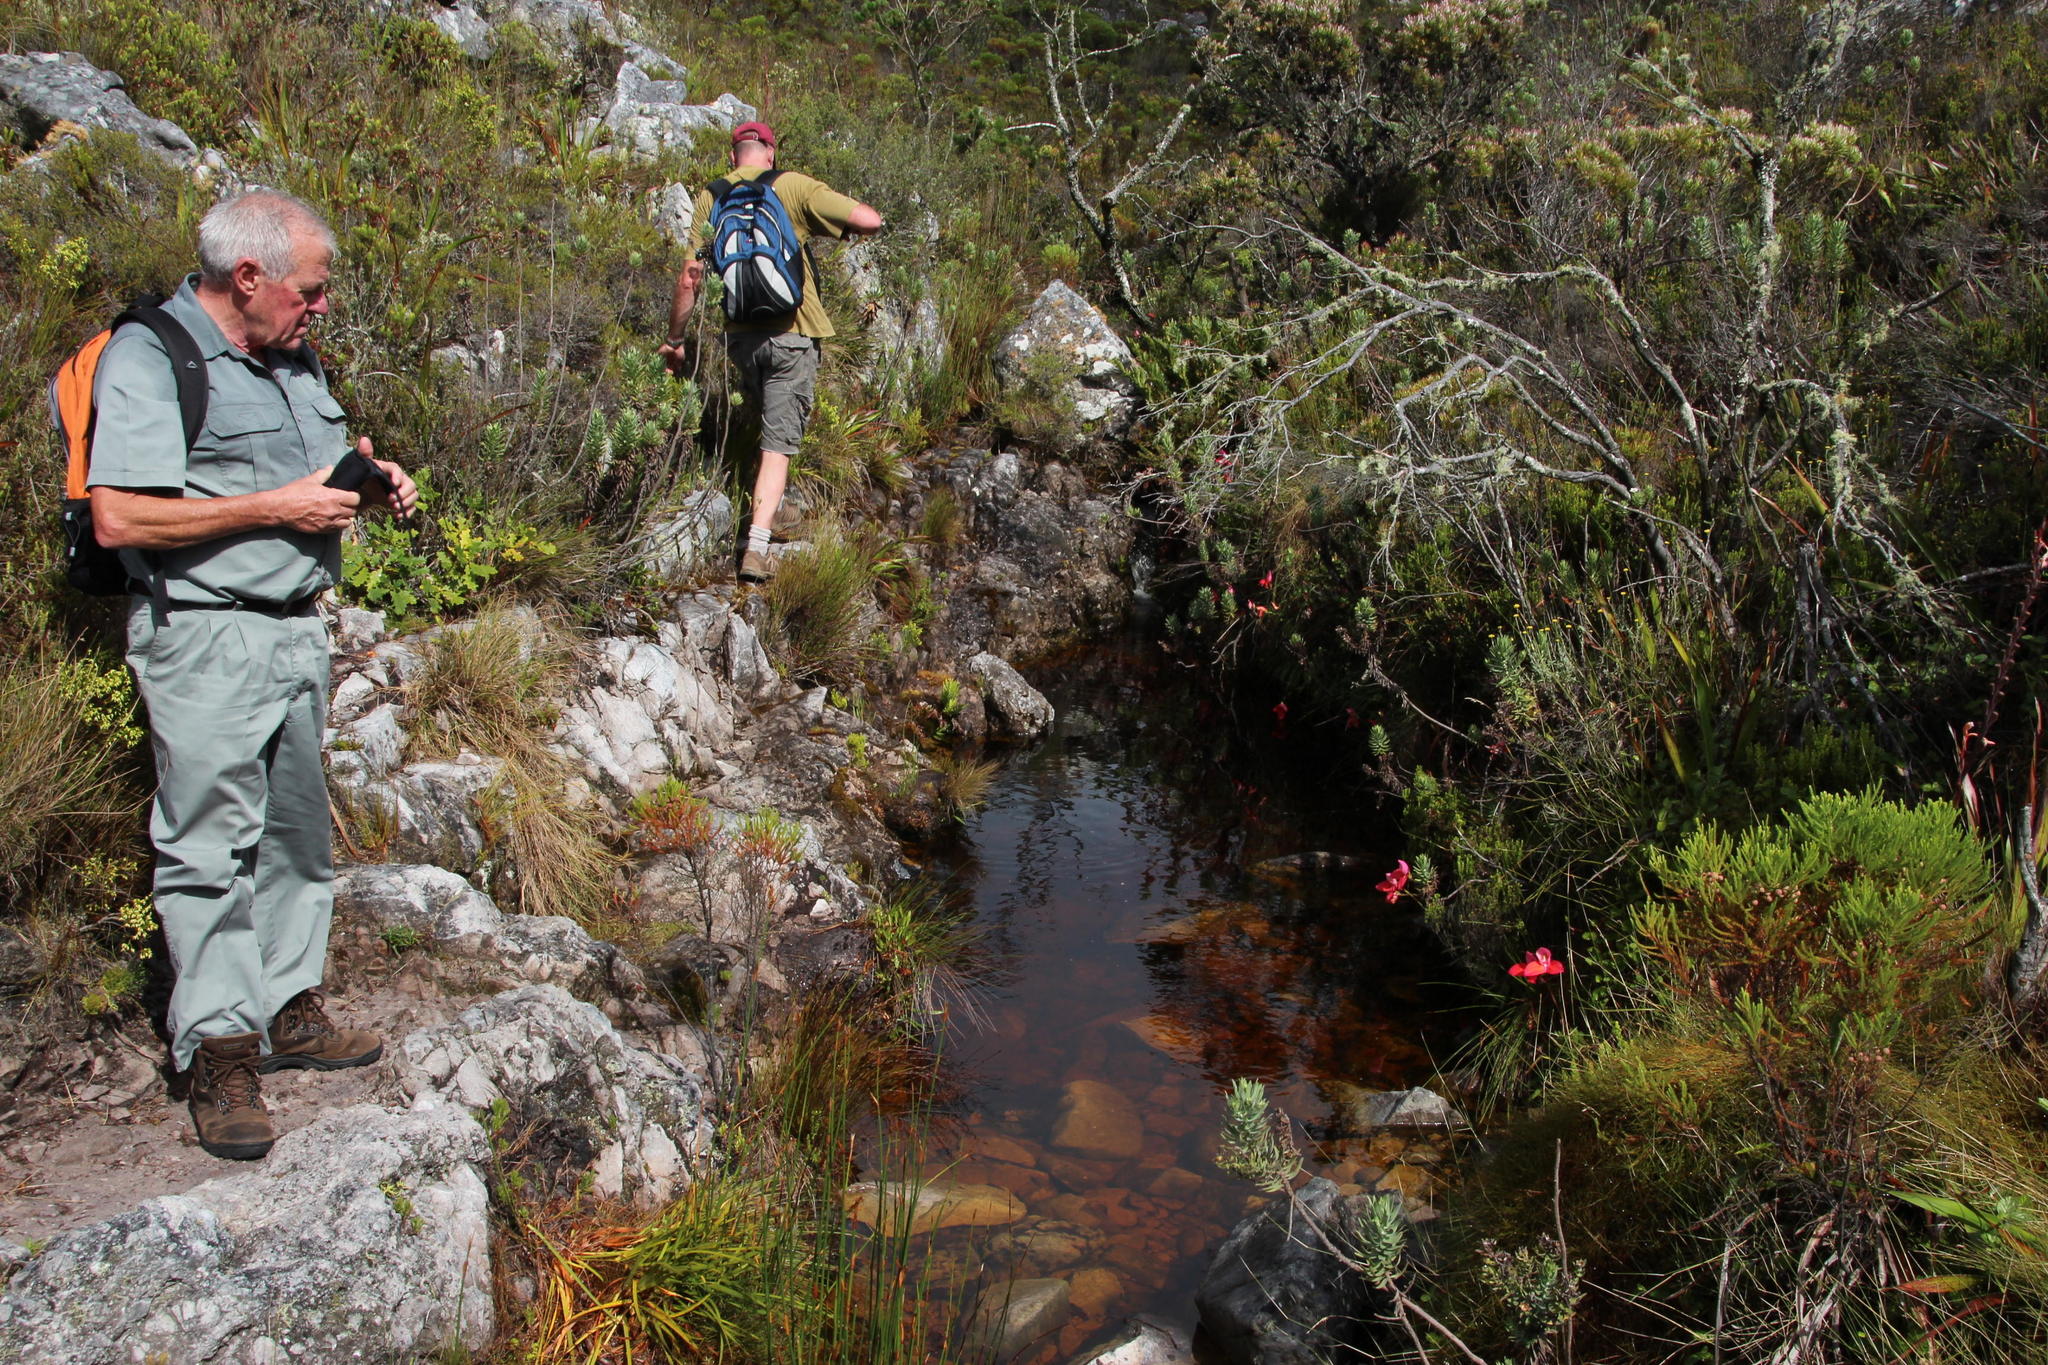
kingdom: Plantae
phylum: Tracheophyta
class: Liliopsida
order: Asparagales
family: Orchidaceae
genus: Disa
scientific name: Disa uniflora
